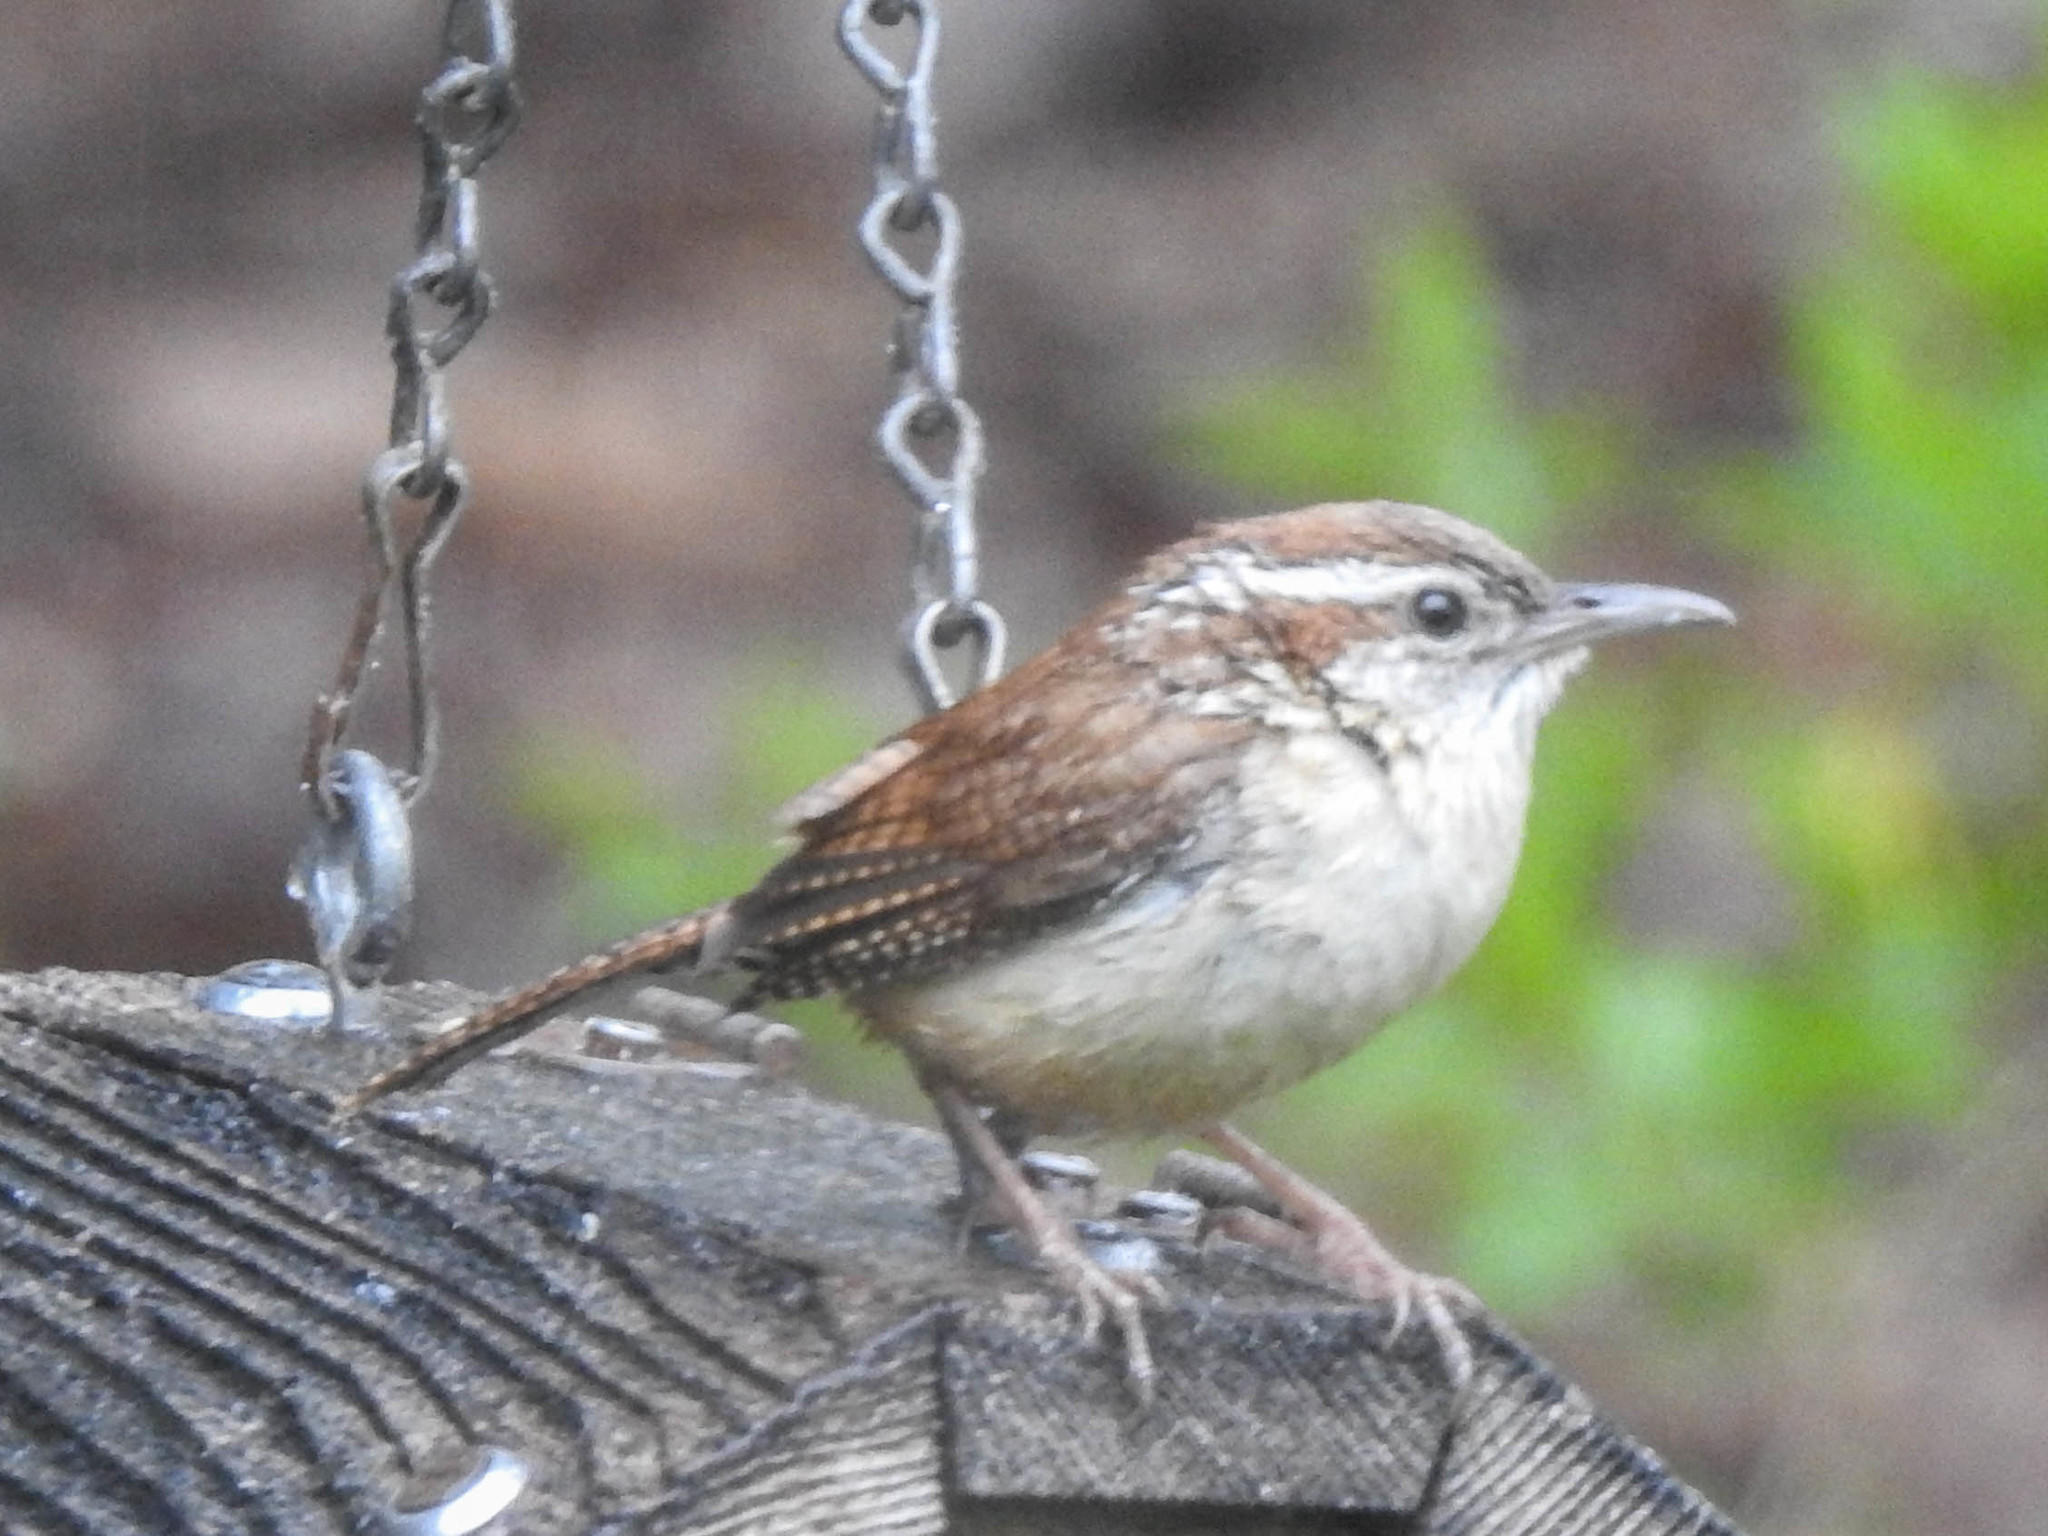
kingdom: Animalia
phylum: Chordata
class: Aves
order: Passeriformes
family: Troglodytidae
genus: Thryothorus
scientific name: Thryothorus ludovicianus
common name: Carolina wren
